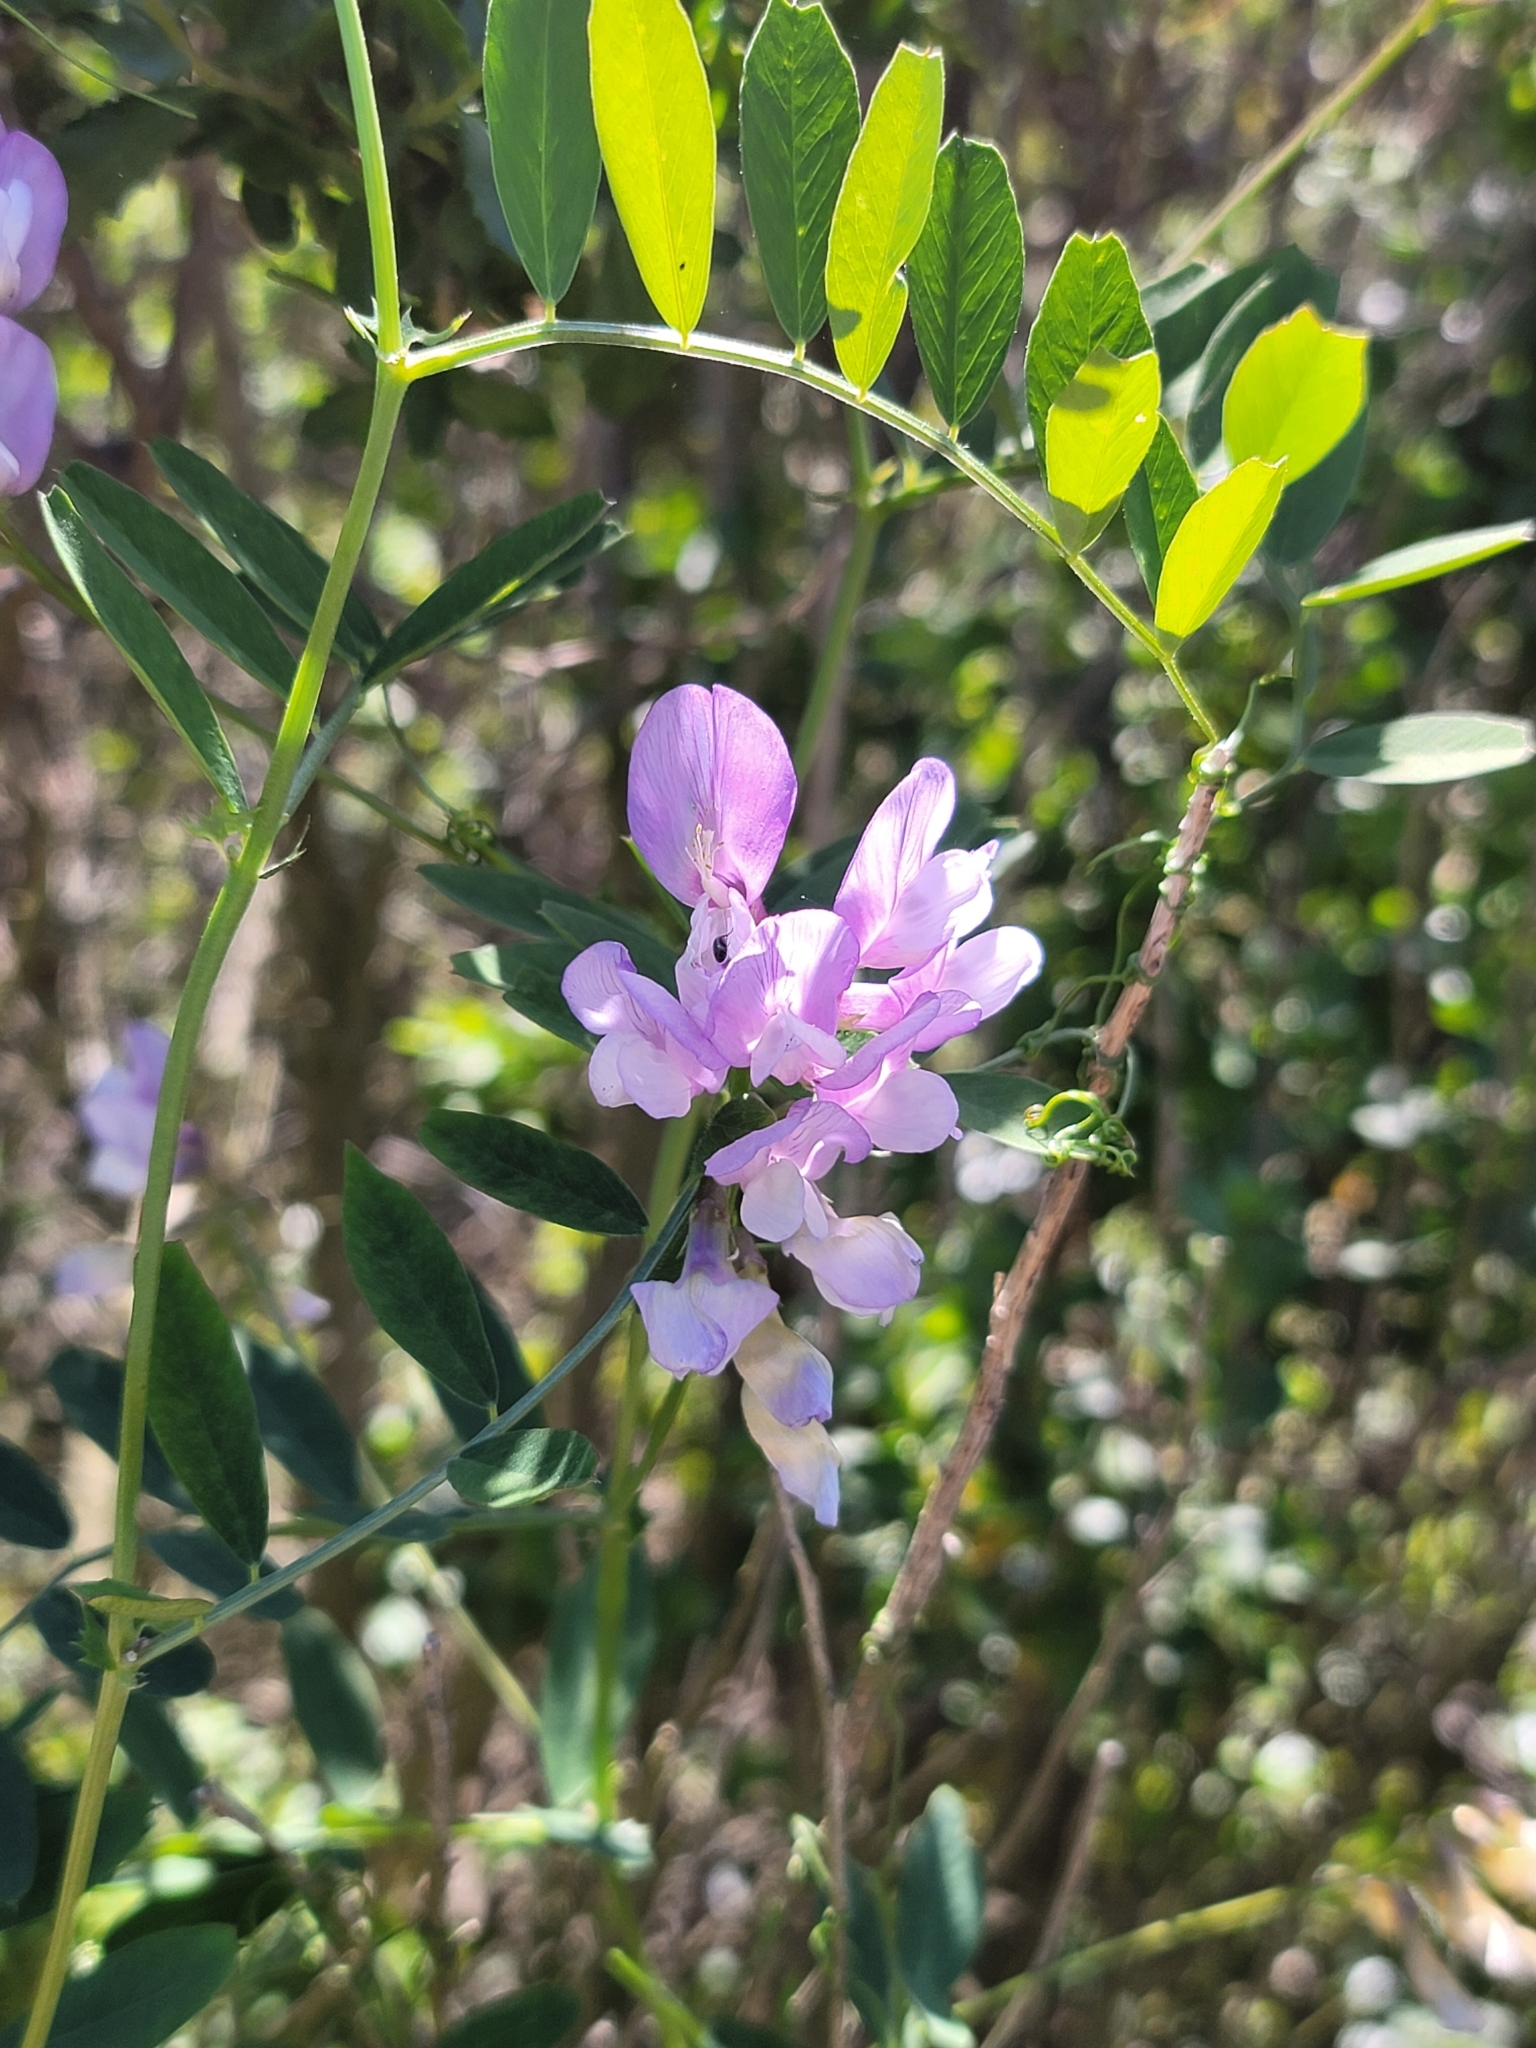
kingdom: Plantae
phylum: Tracheophyta
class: Magnoliopsida
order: Fabales
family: Fabaceae
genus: Vicia
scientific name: Vicia americana
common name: American vetch
